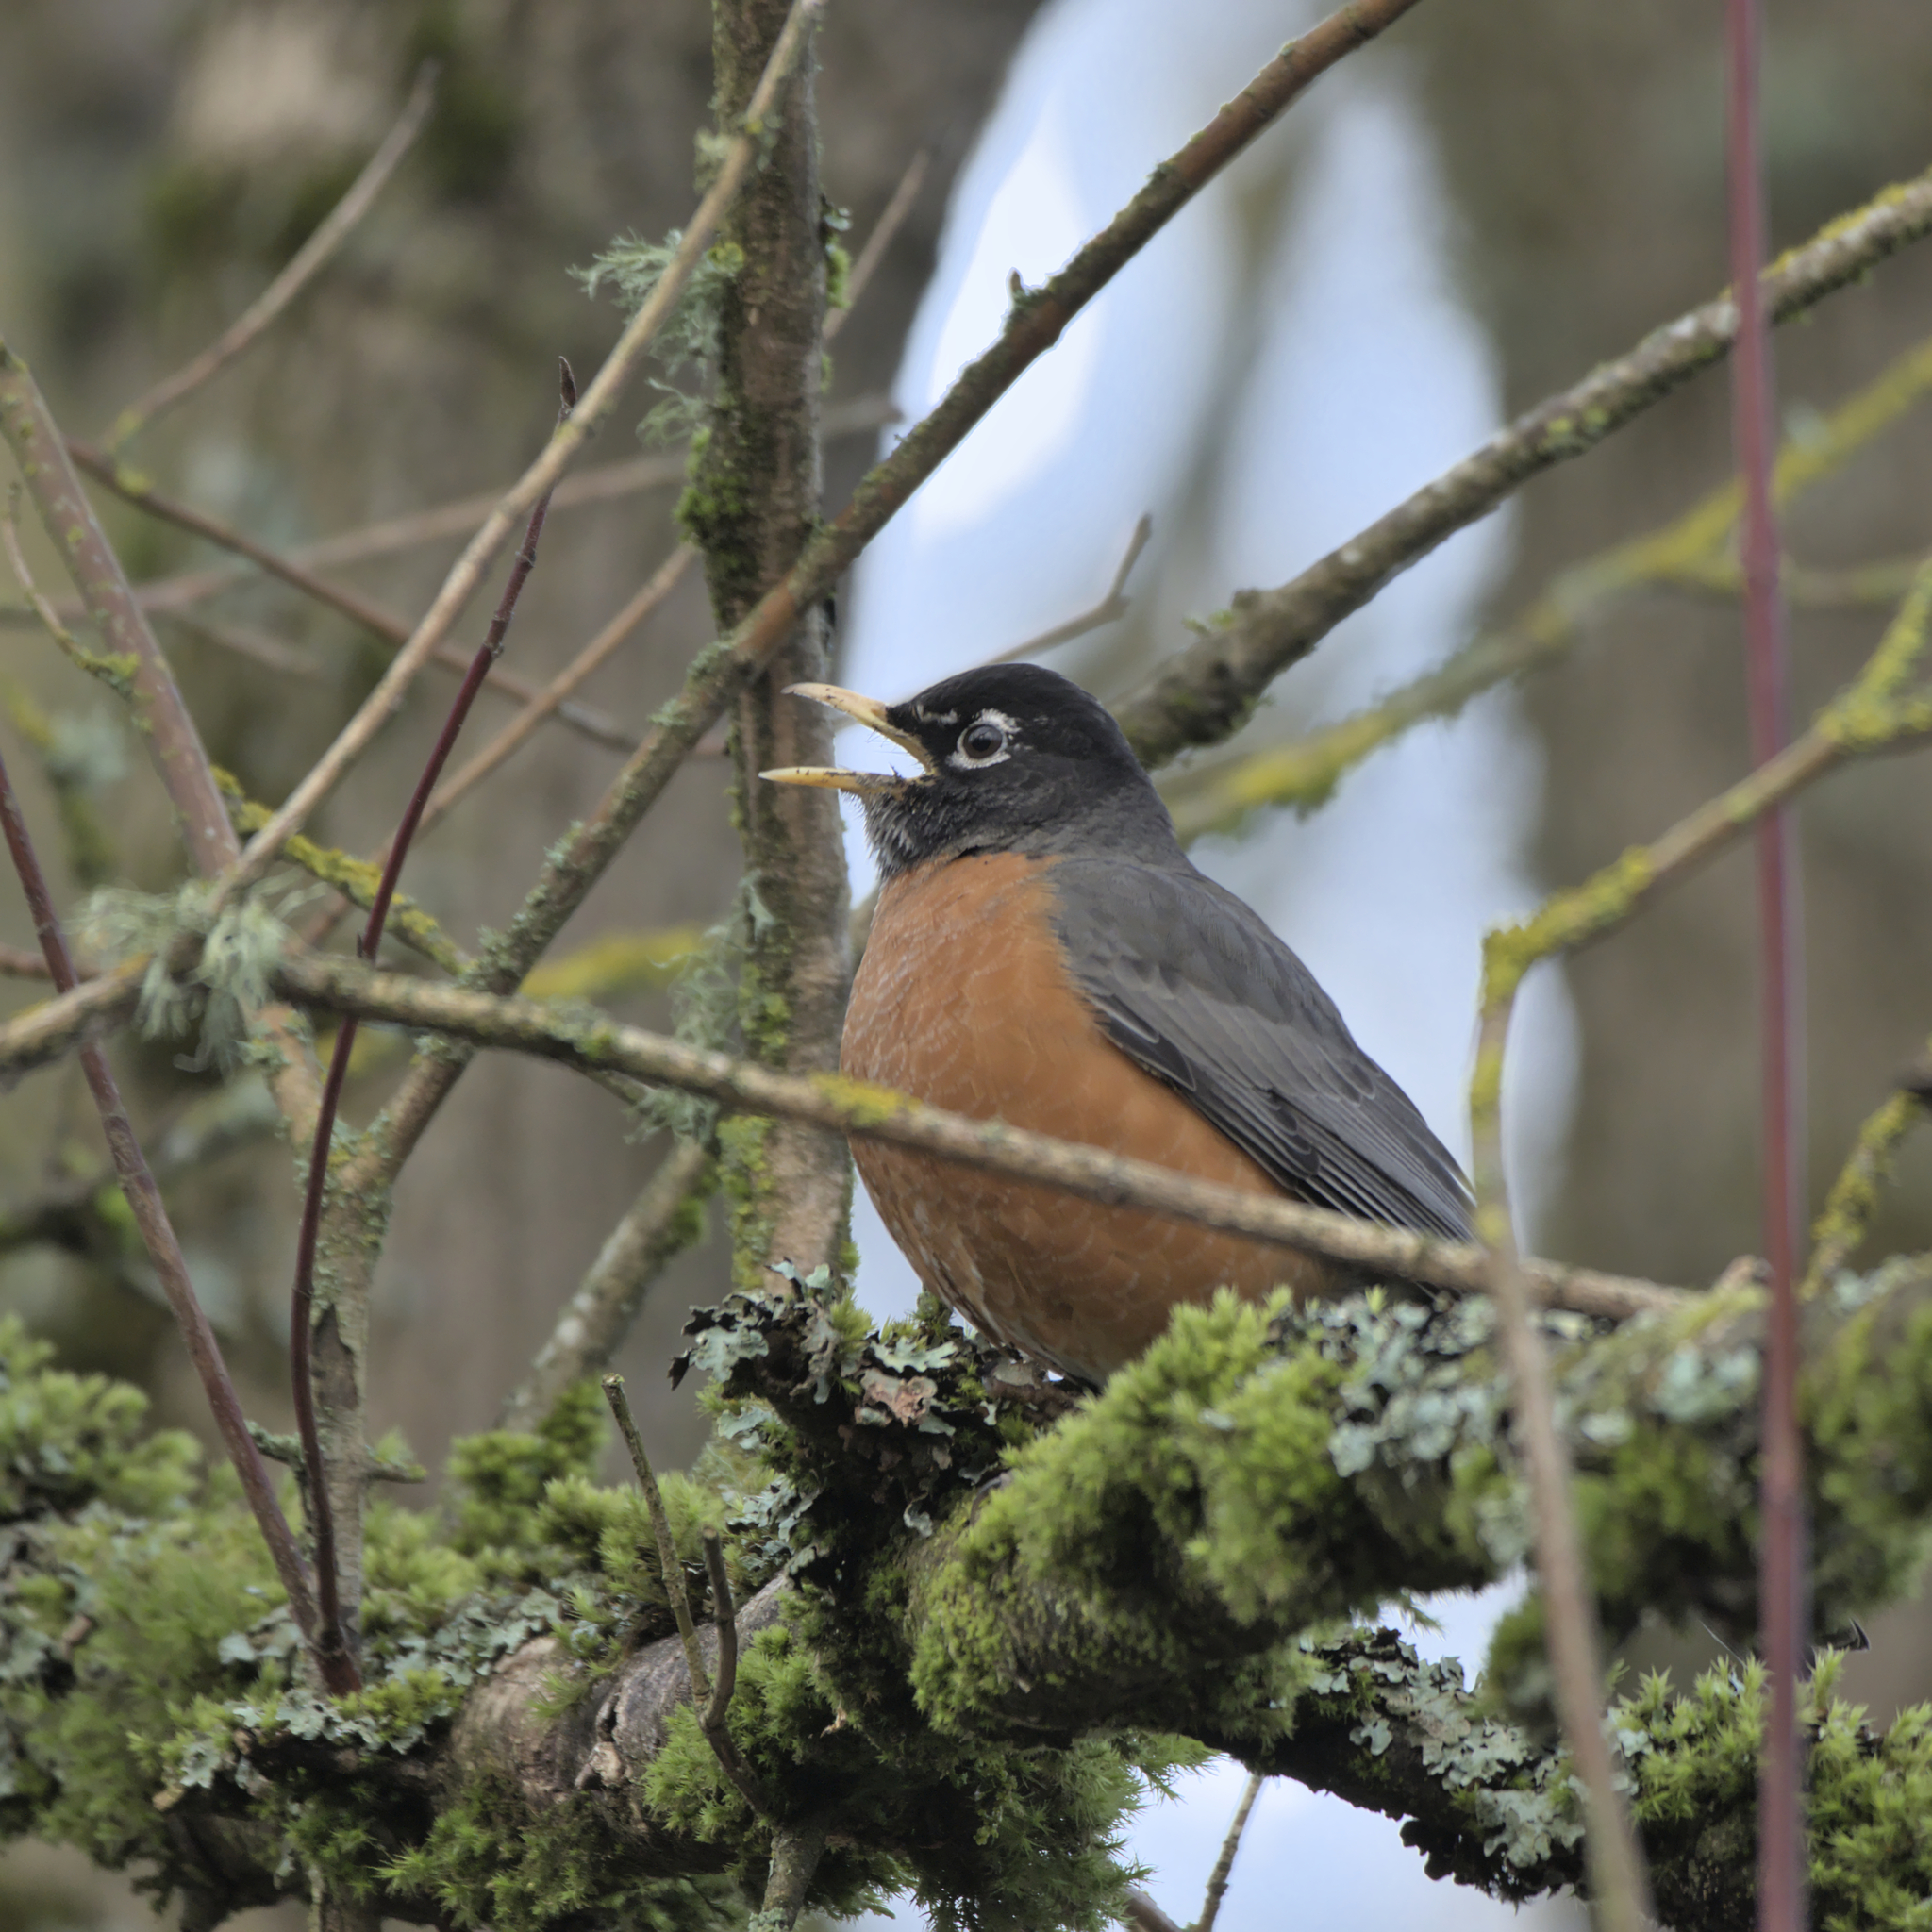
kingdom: Animalia
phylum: Chordata
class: Aves
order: Passeriformes
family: Turdidae
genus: Turdus
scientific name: Turdus migratorius
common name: American robin
